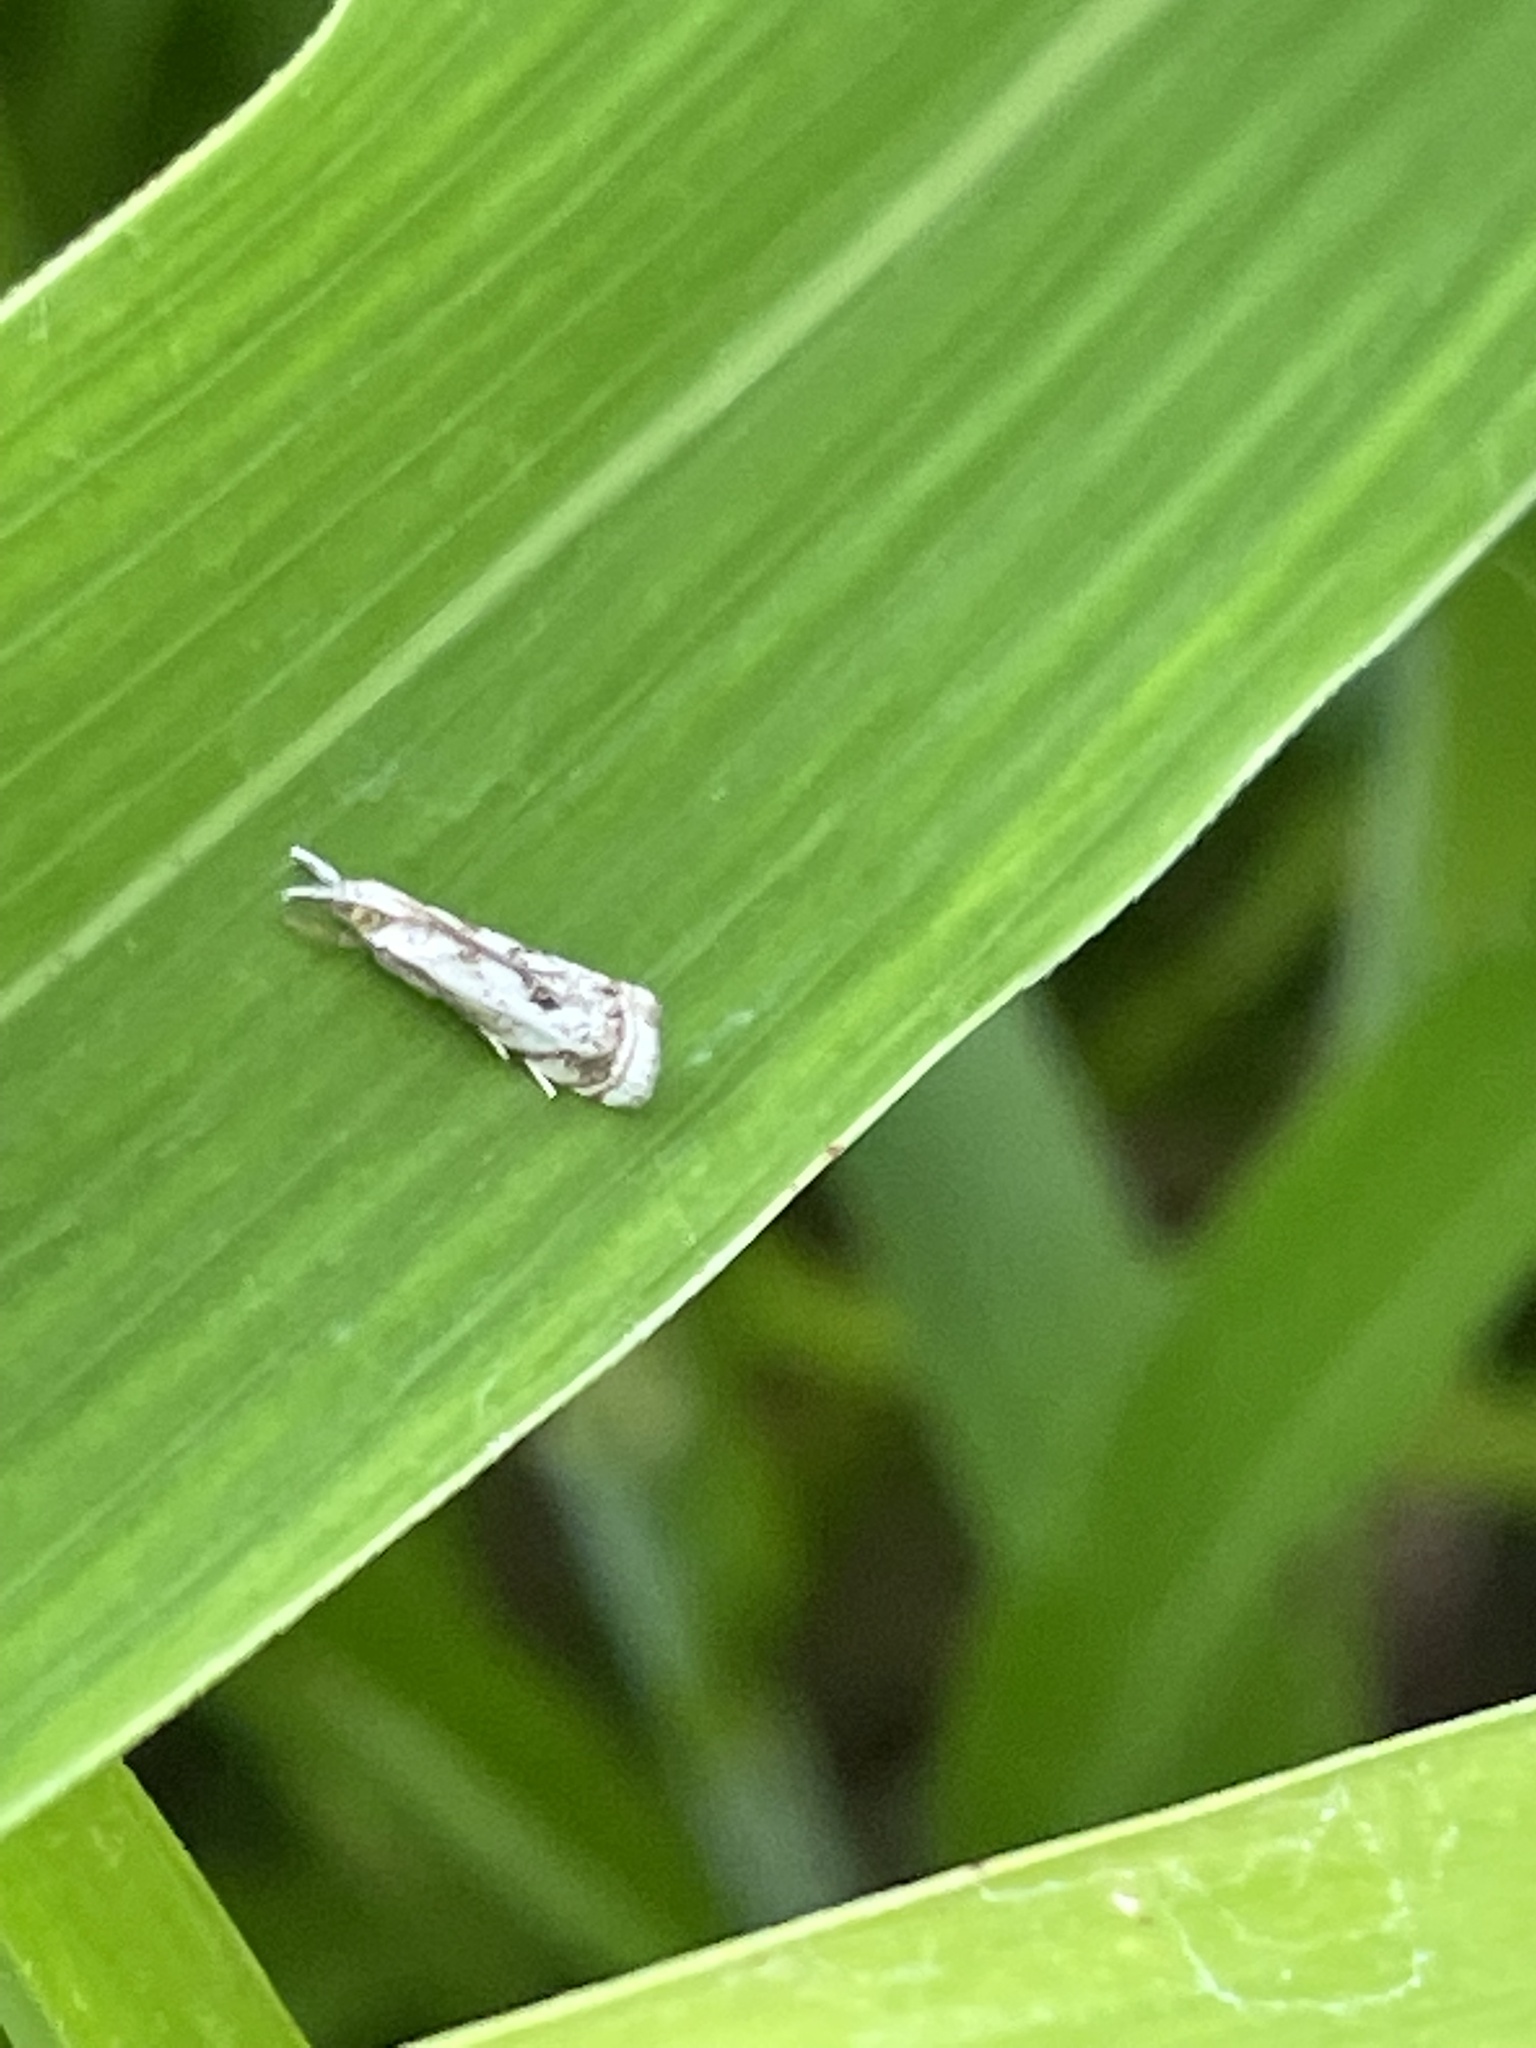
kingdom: Animalia
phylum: Arthropoda
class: Insecta
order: Lepidoptera
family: Crambidae
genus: Microcrambus
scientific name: Microcrambus elegans
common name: Elegant grass-veneer
